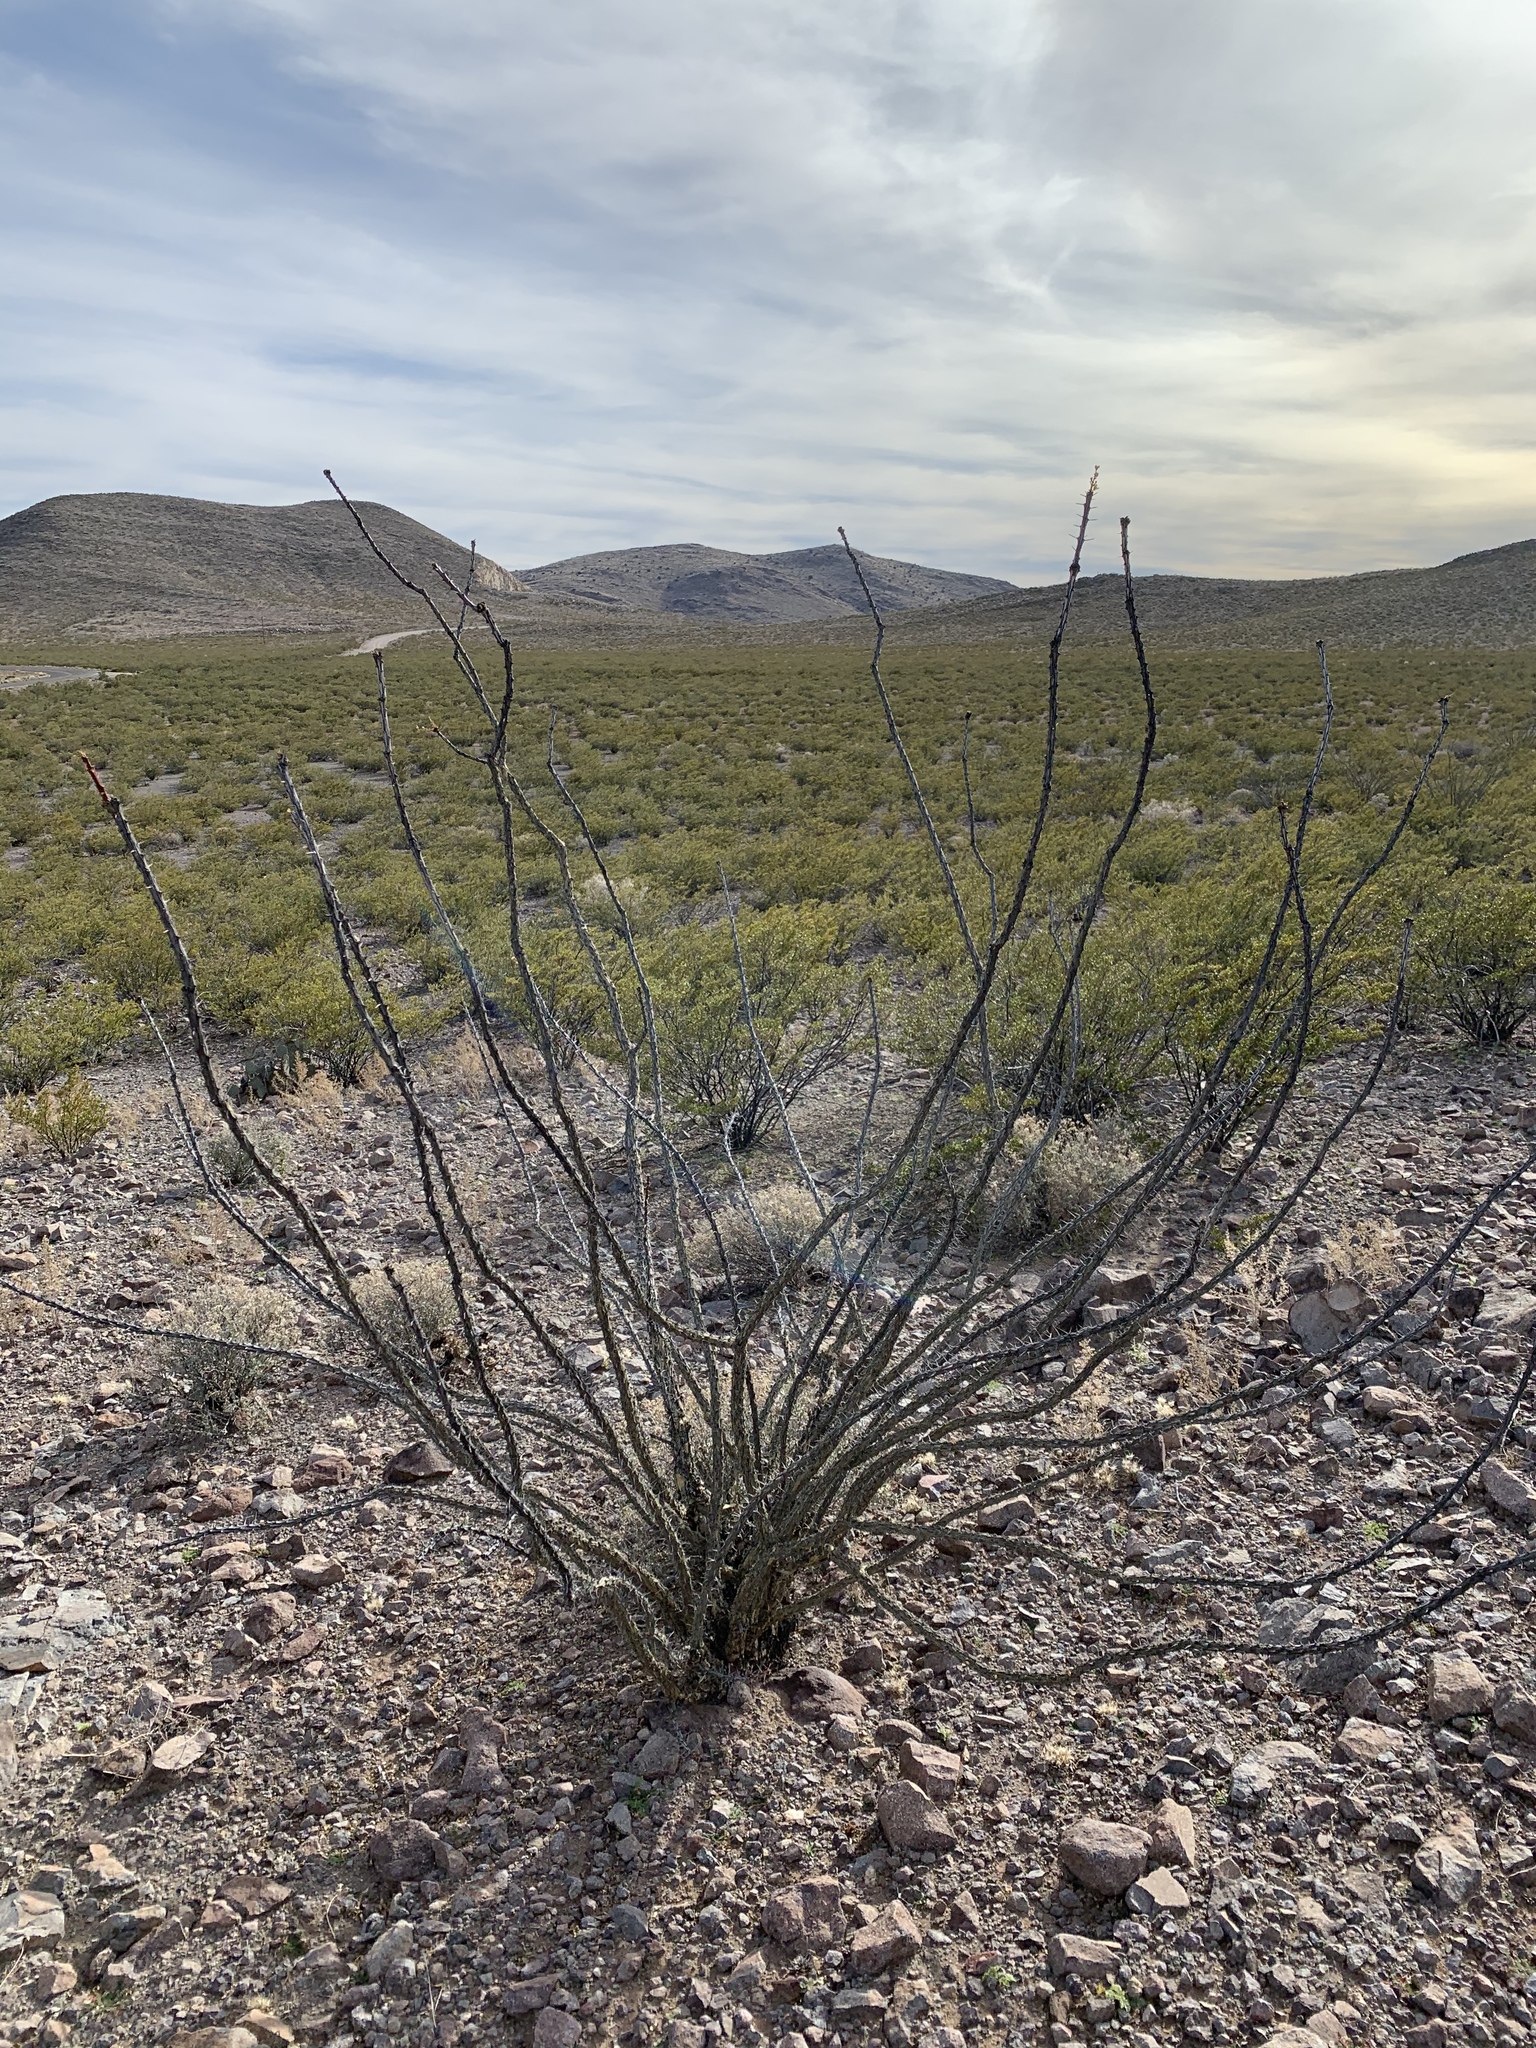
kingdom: Plantae
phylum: Tracheophyta
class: Magnoliopsida
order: Ericales
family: Fouquieriaceae
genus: Fouquieria
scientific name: Fouquieria splendens
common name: Vine-cactus
